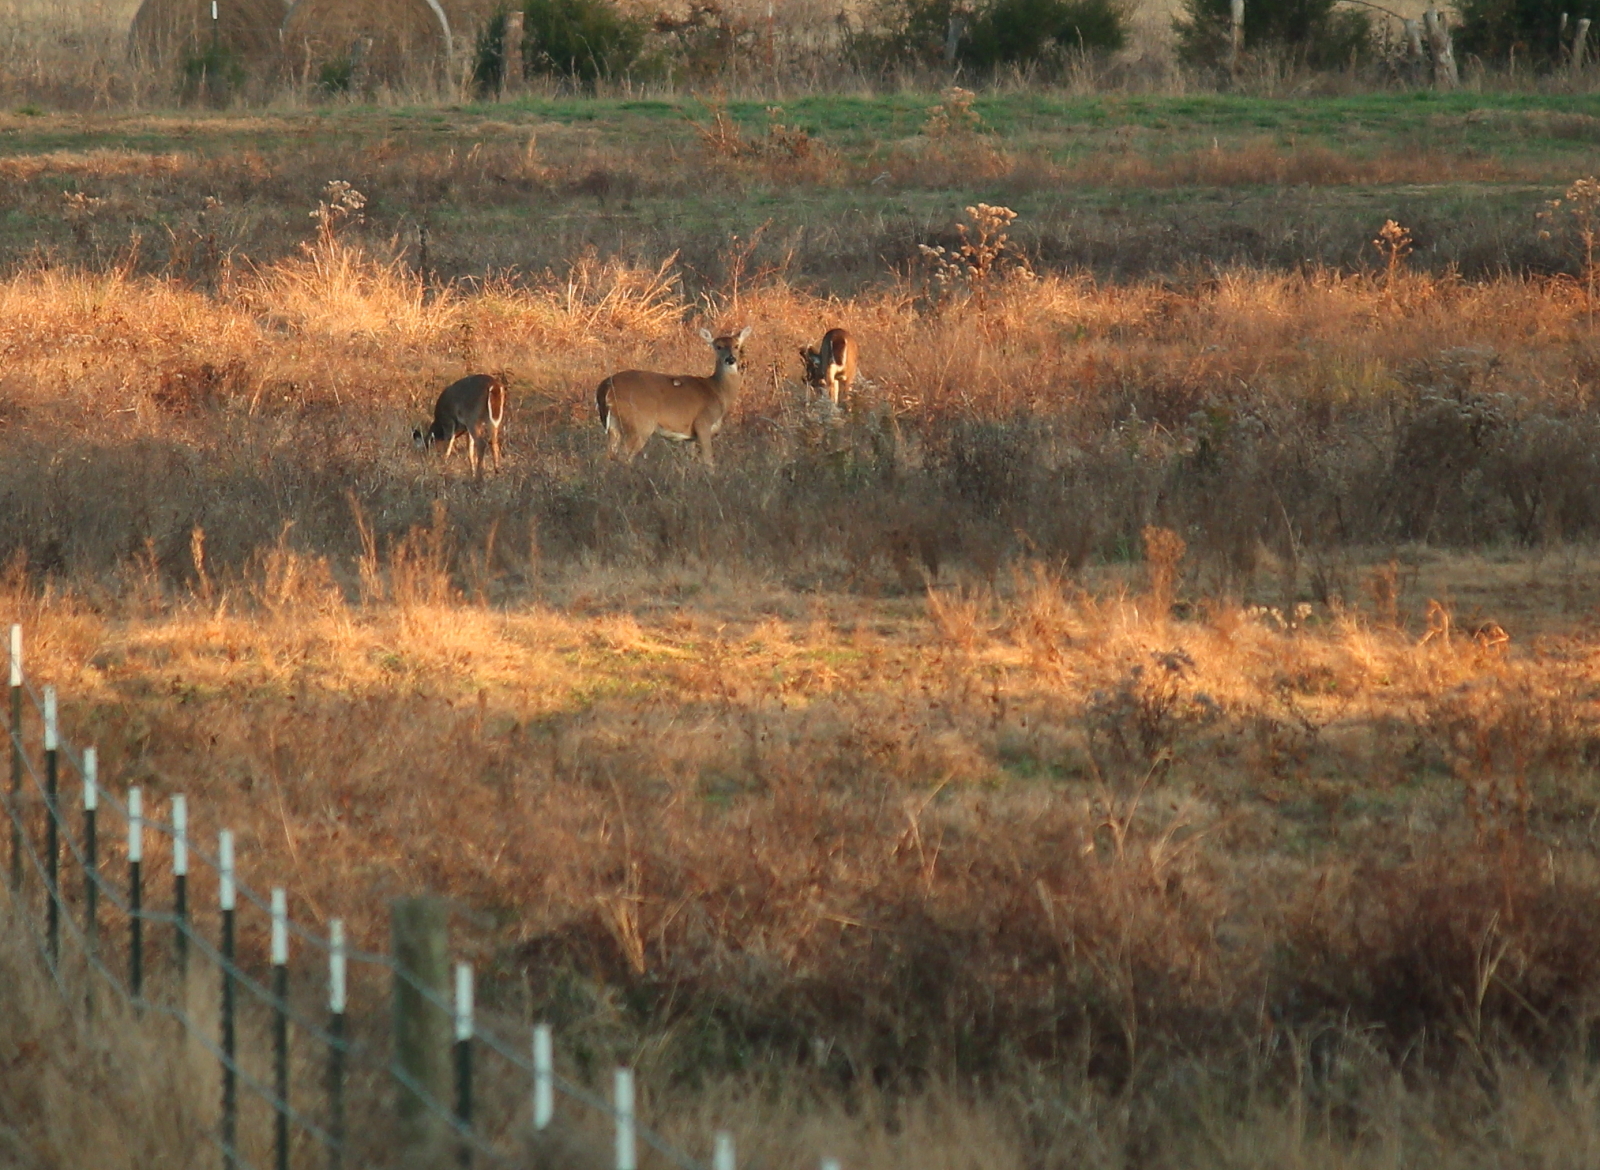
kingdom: Animalia
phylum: Chordata
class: Mammalia
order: Artiodactyla
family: Cervidae
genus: Odocoileus
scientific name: Odocoileus virginianus
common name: White-tailed deer
